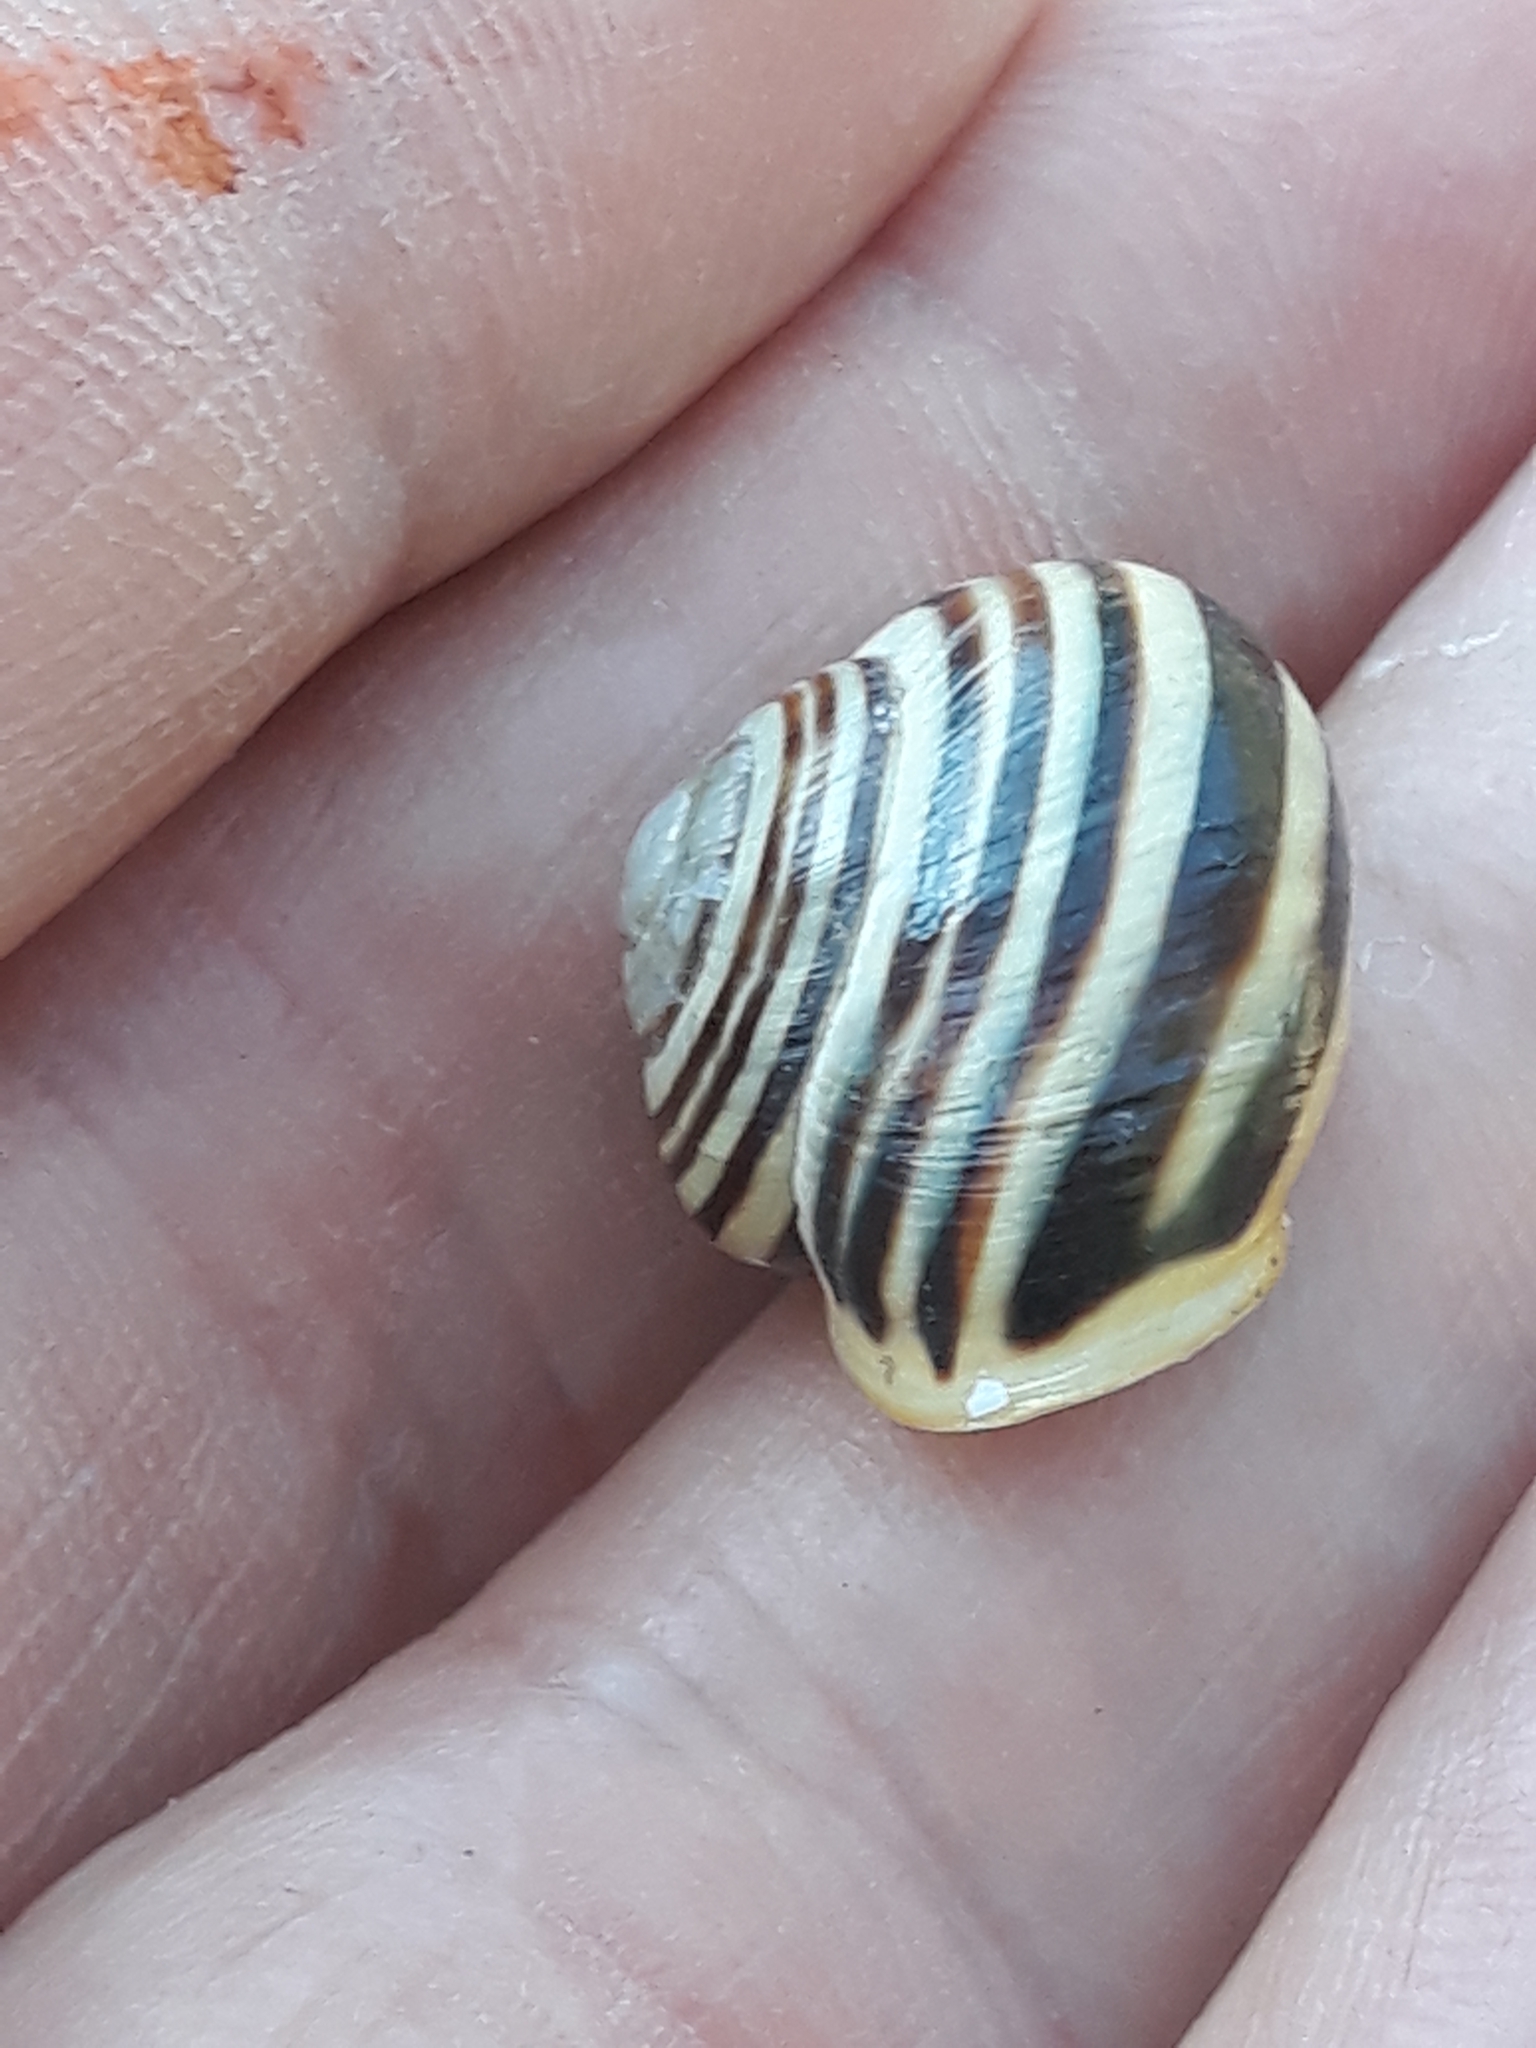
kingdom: Animalia
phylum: Mollusca
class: Gastropoda
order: Stylommatophora
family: Helicidae
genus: Cepaea
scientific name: Cepaea hortensis
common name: White-lip gardensnail
